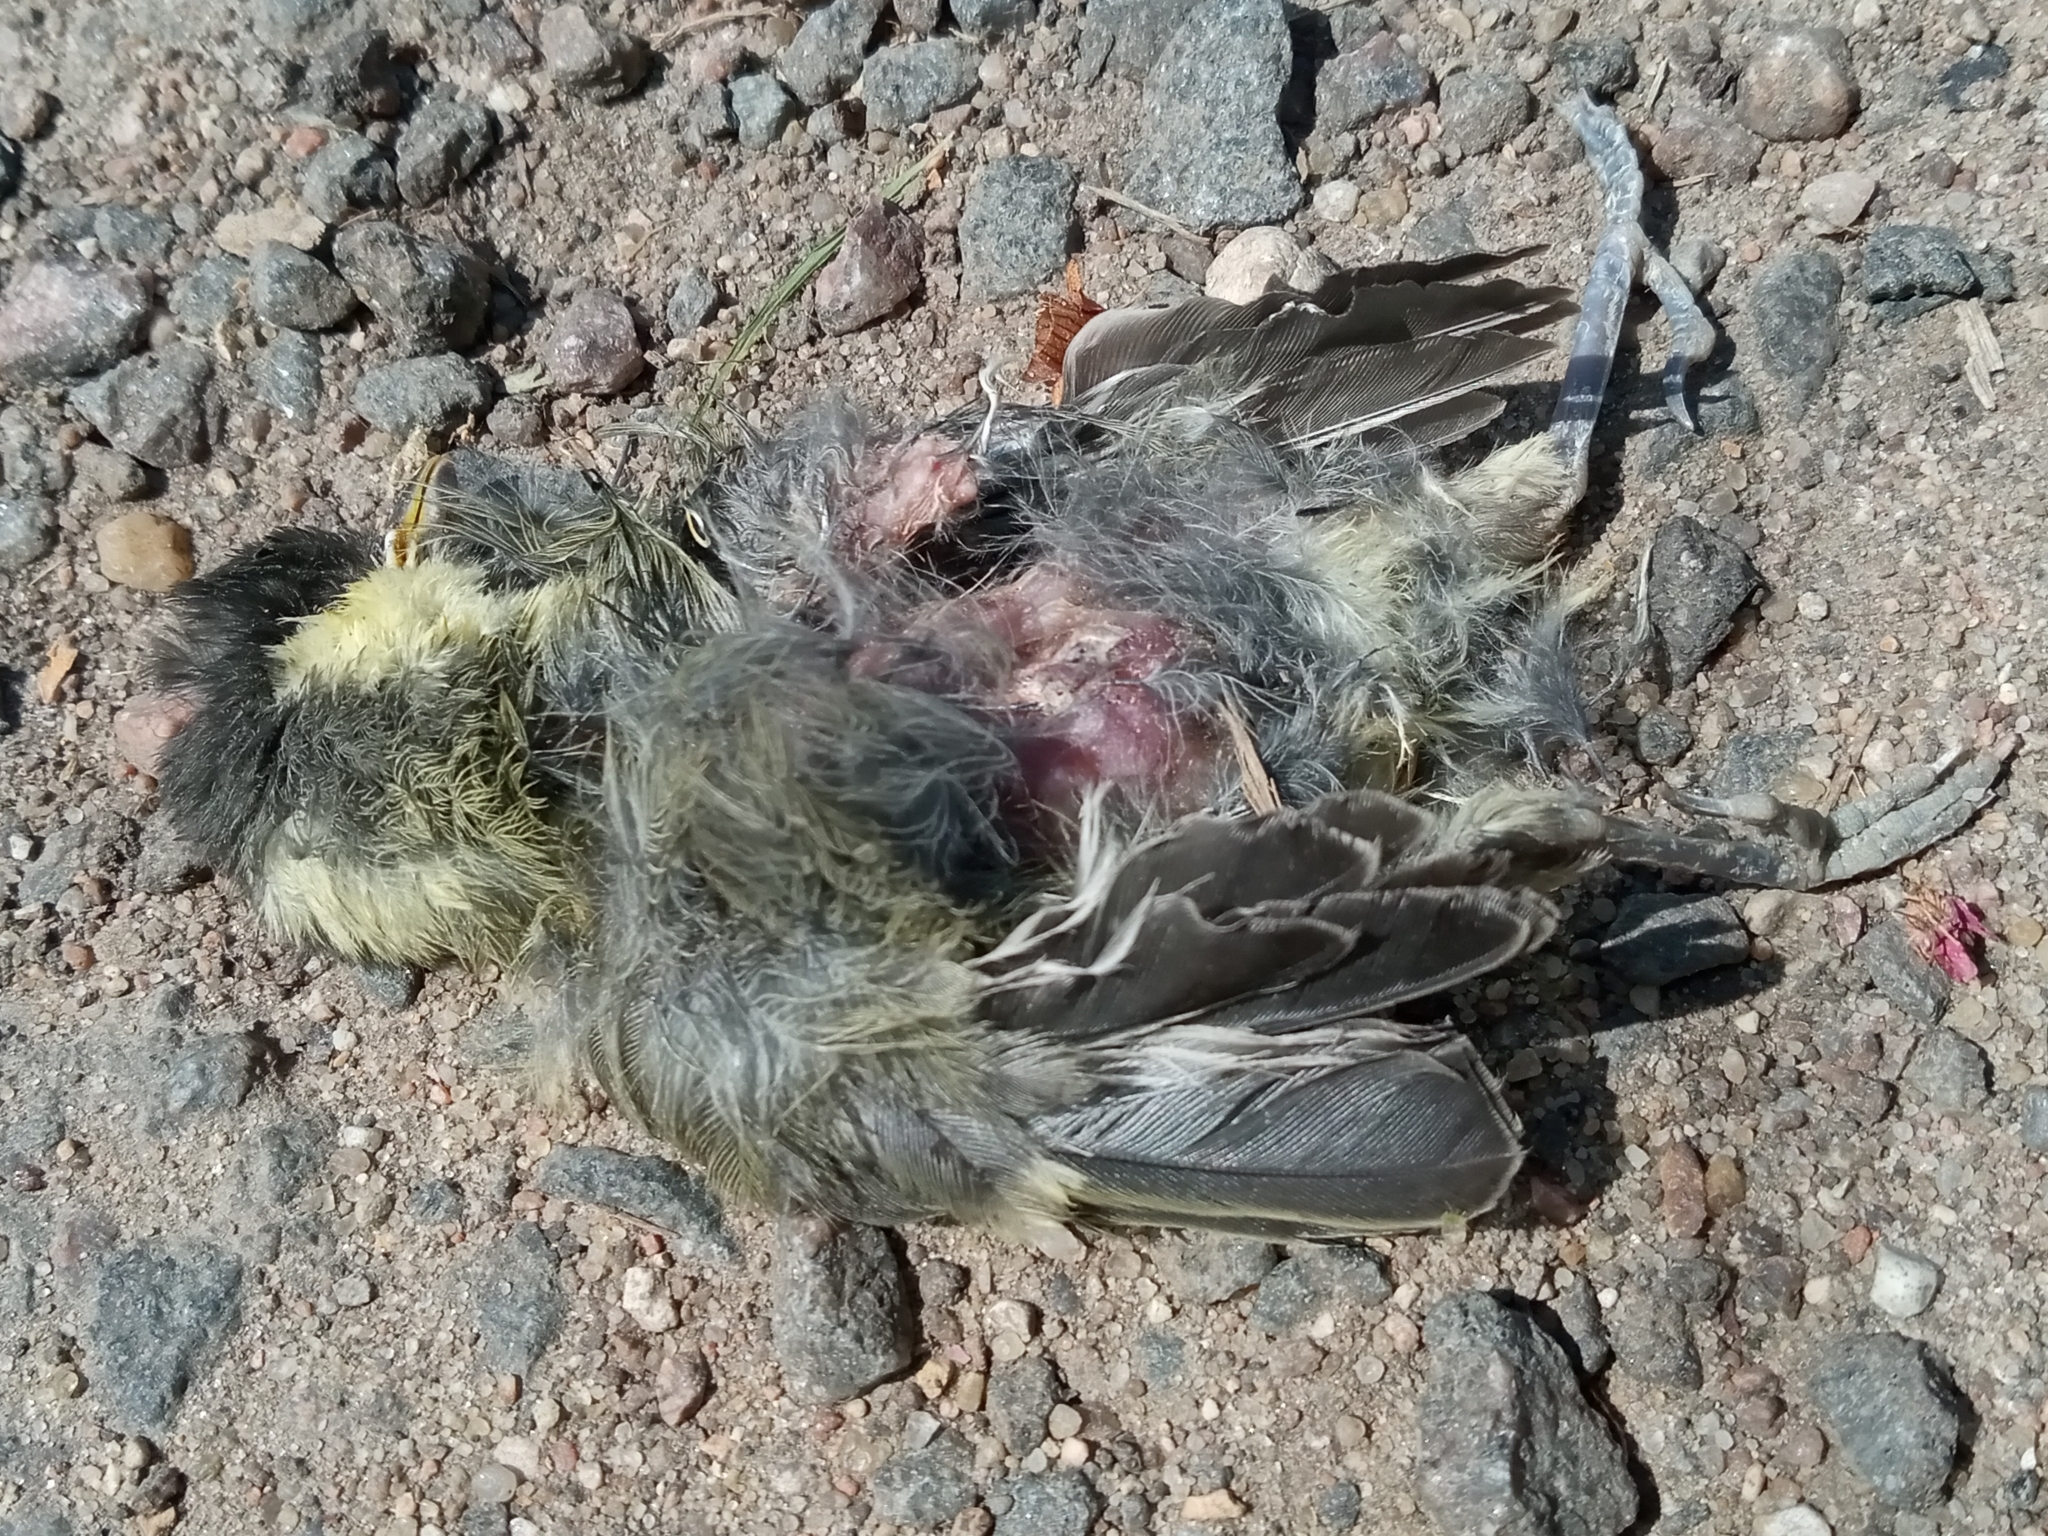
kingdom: Animalia
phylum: Chordata
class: Aves
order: Passeriformes
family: Paridae
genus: Parus
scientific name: Parus major
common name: Great tit
